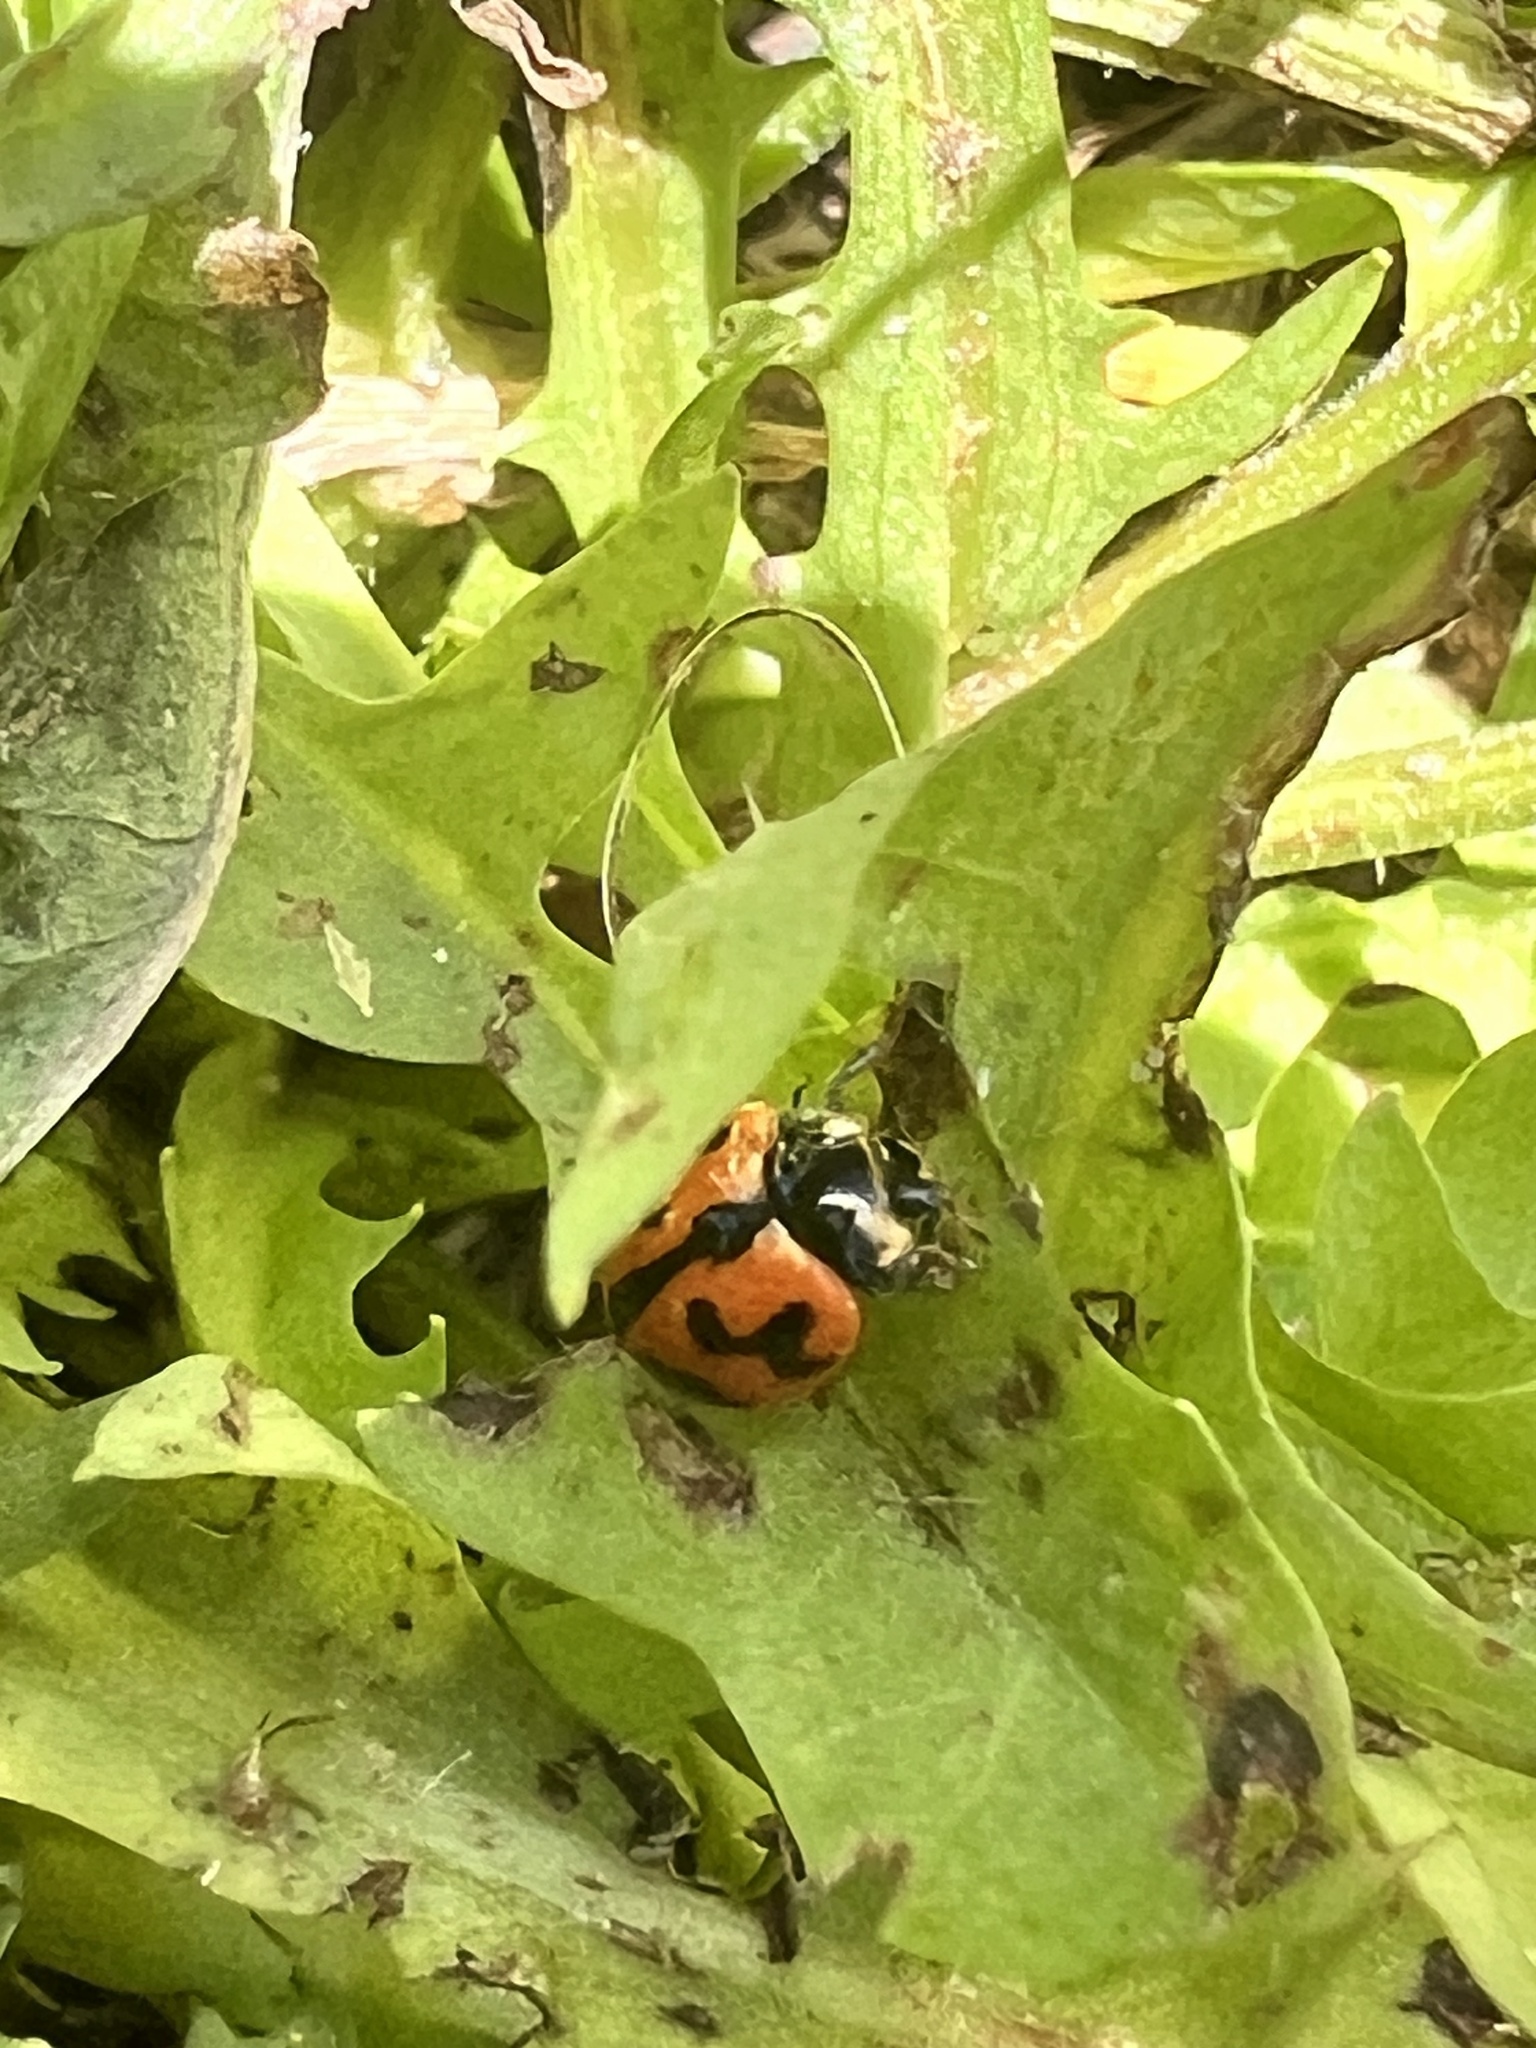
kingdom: Animalia
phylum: Arthropoda
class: Insecta
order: Coleoptera
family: Coccinellidae
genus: Coccinella
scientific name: Coccinella transversalis
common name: Transverse lady beetle
